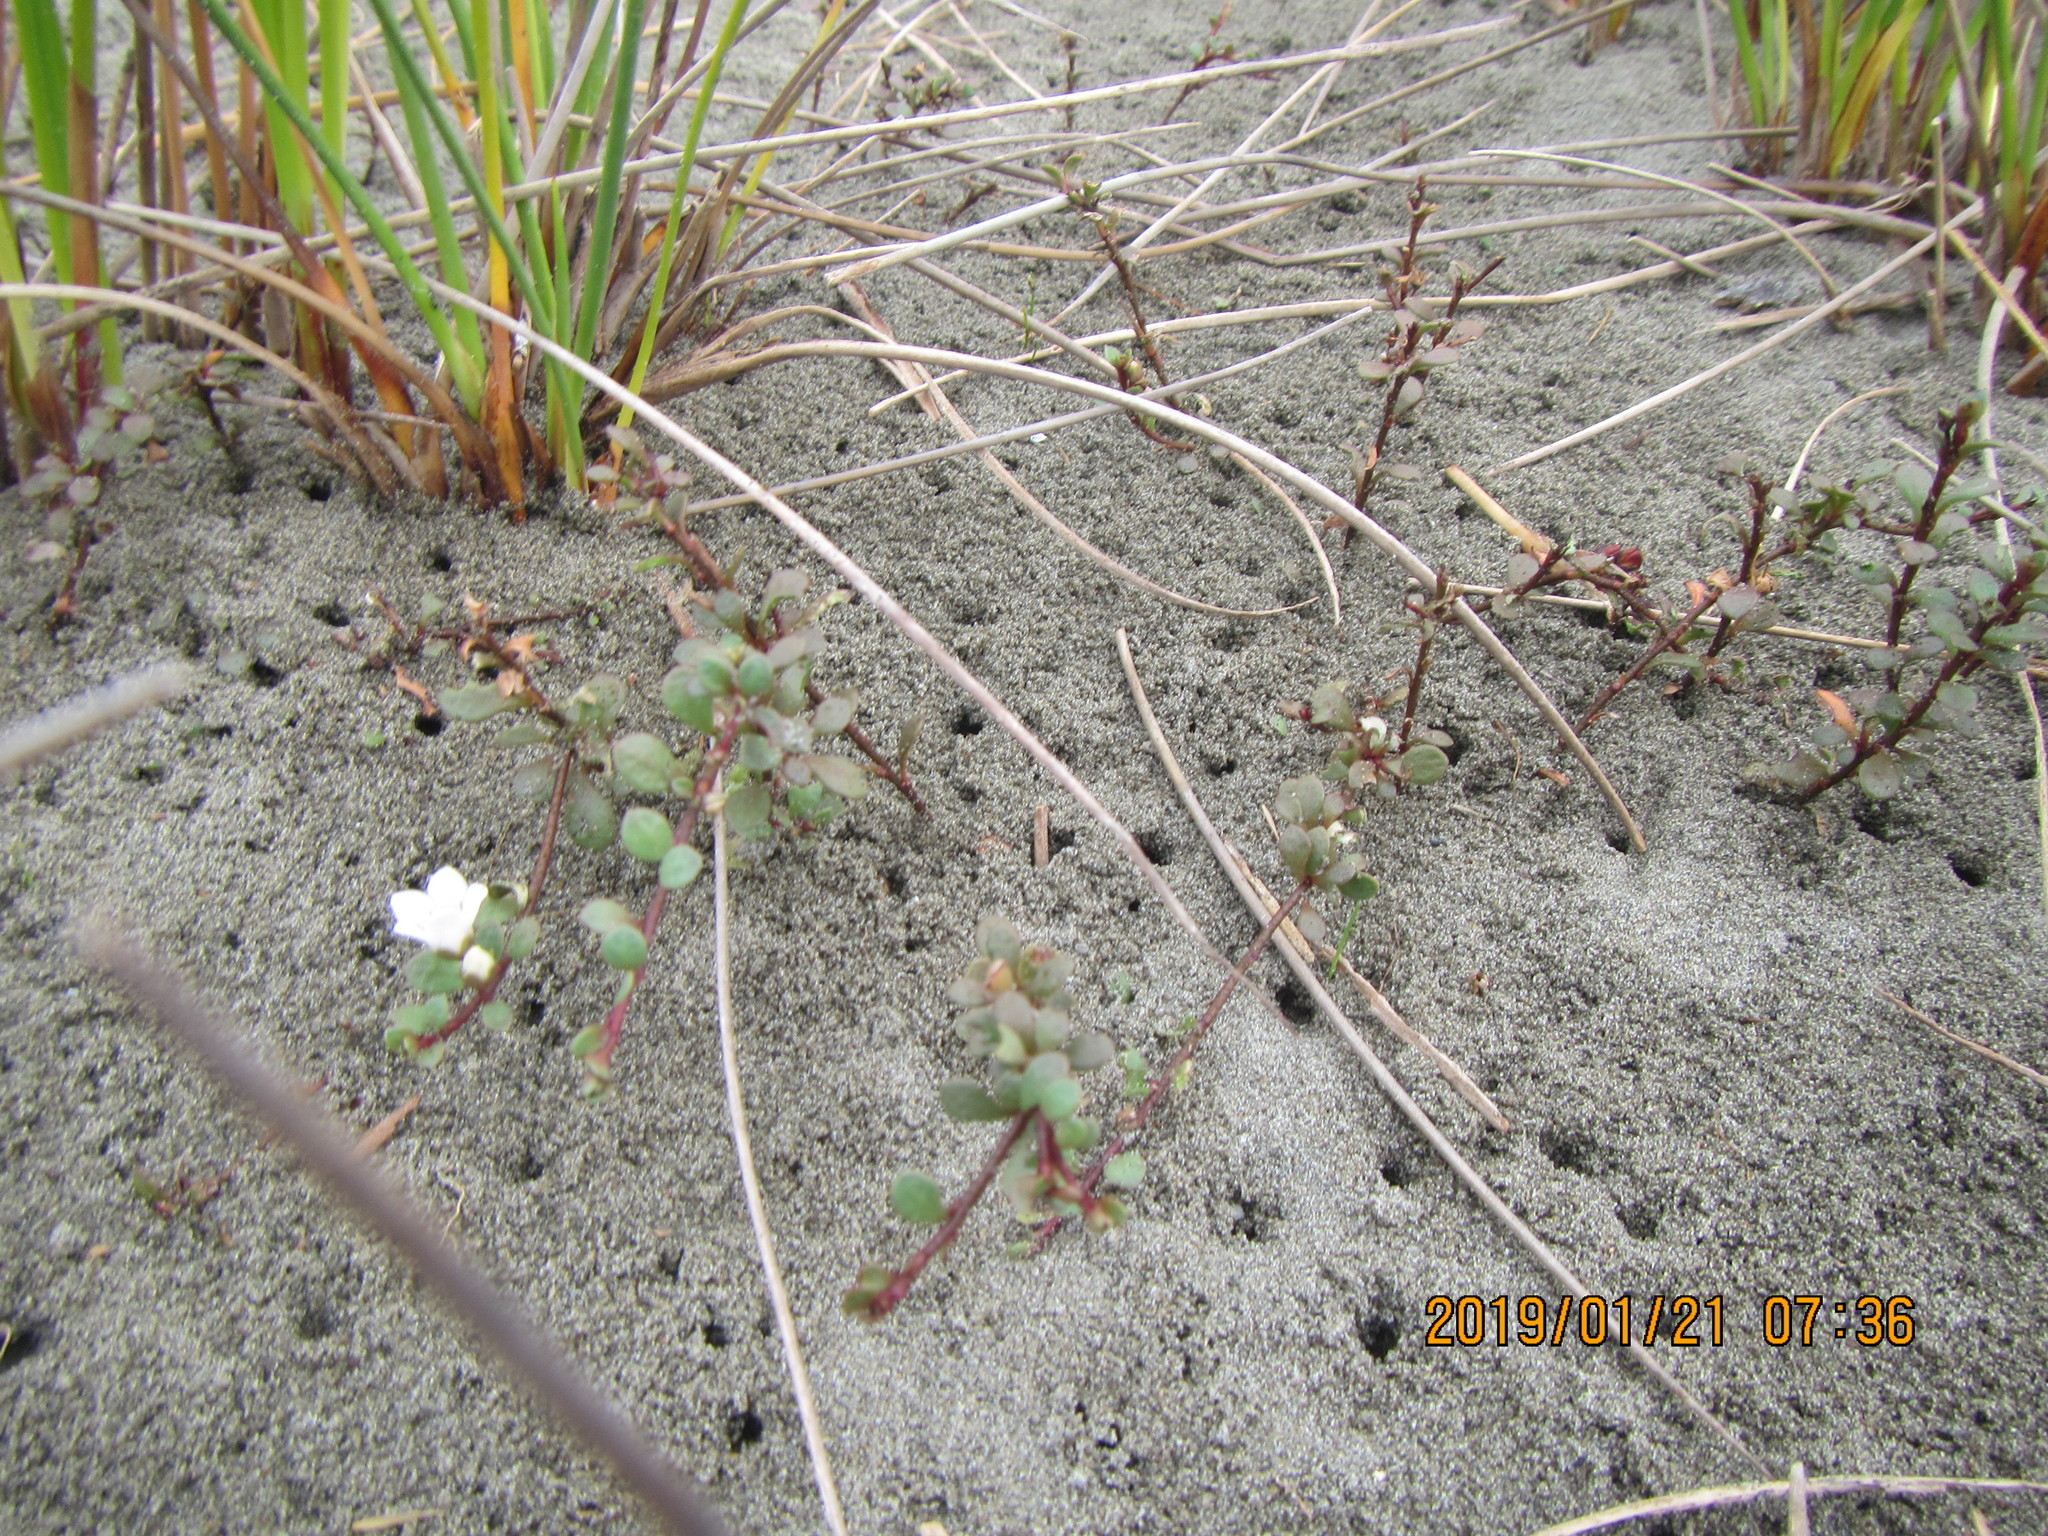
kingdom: Plantae
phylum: Tracheophyta
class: Magnoliopsida
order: Ericales
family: Primulaceae
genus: Samolus
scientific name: Samolus repens
